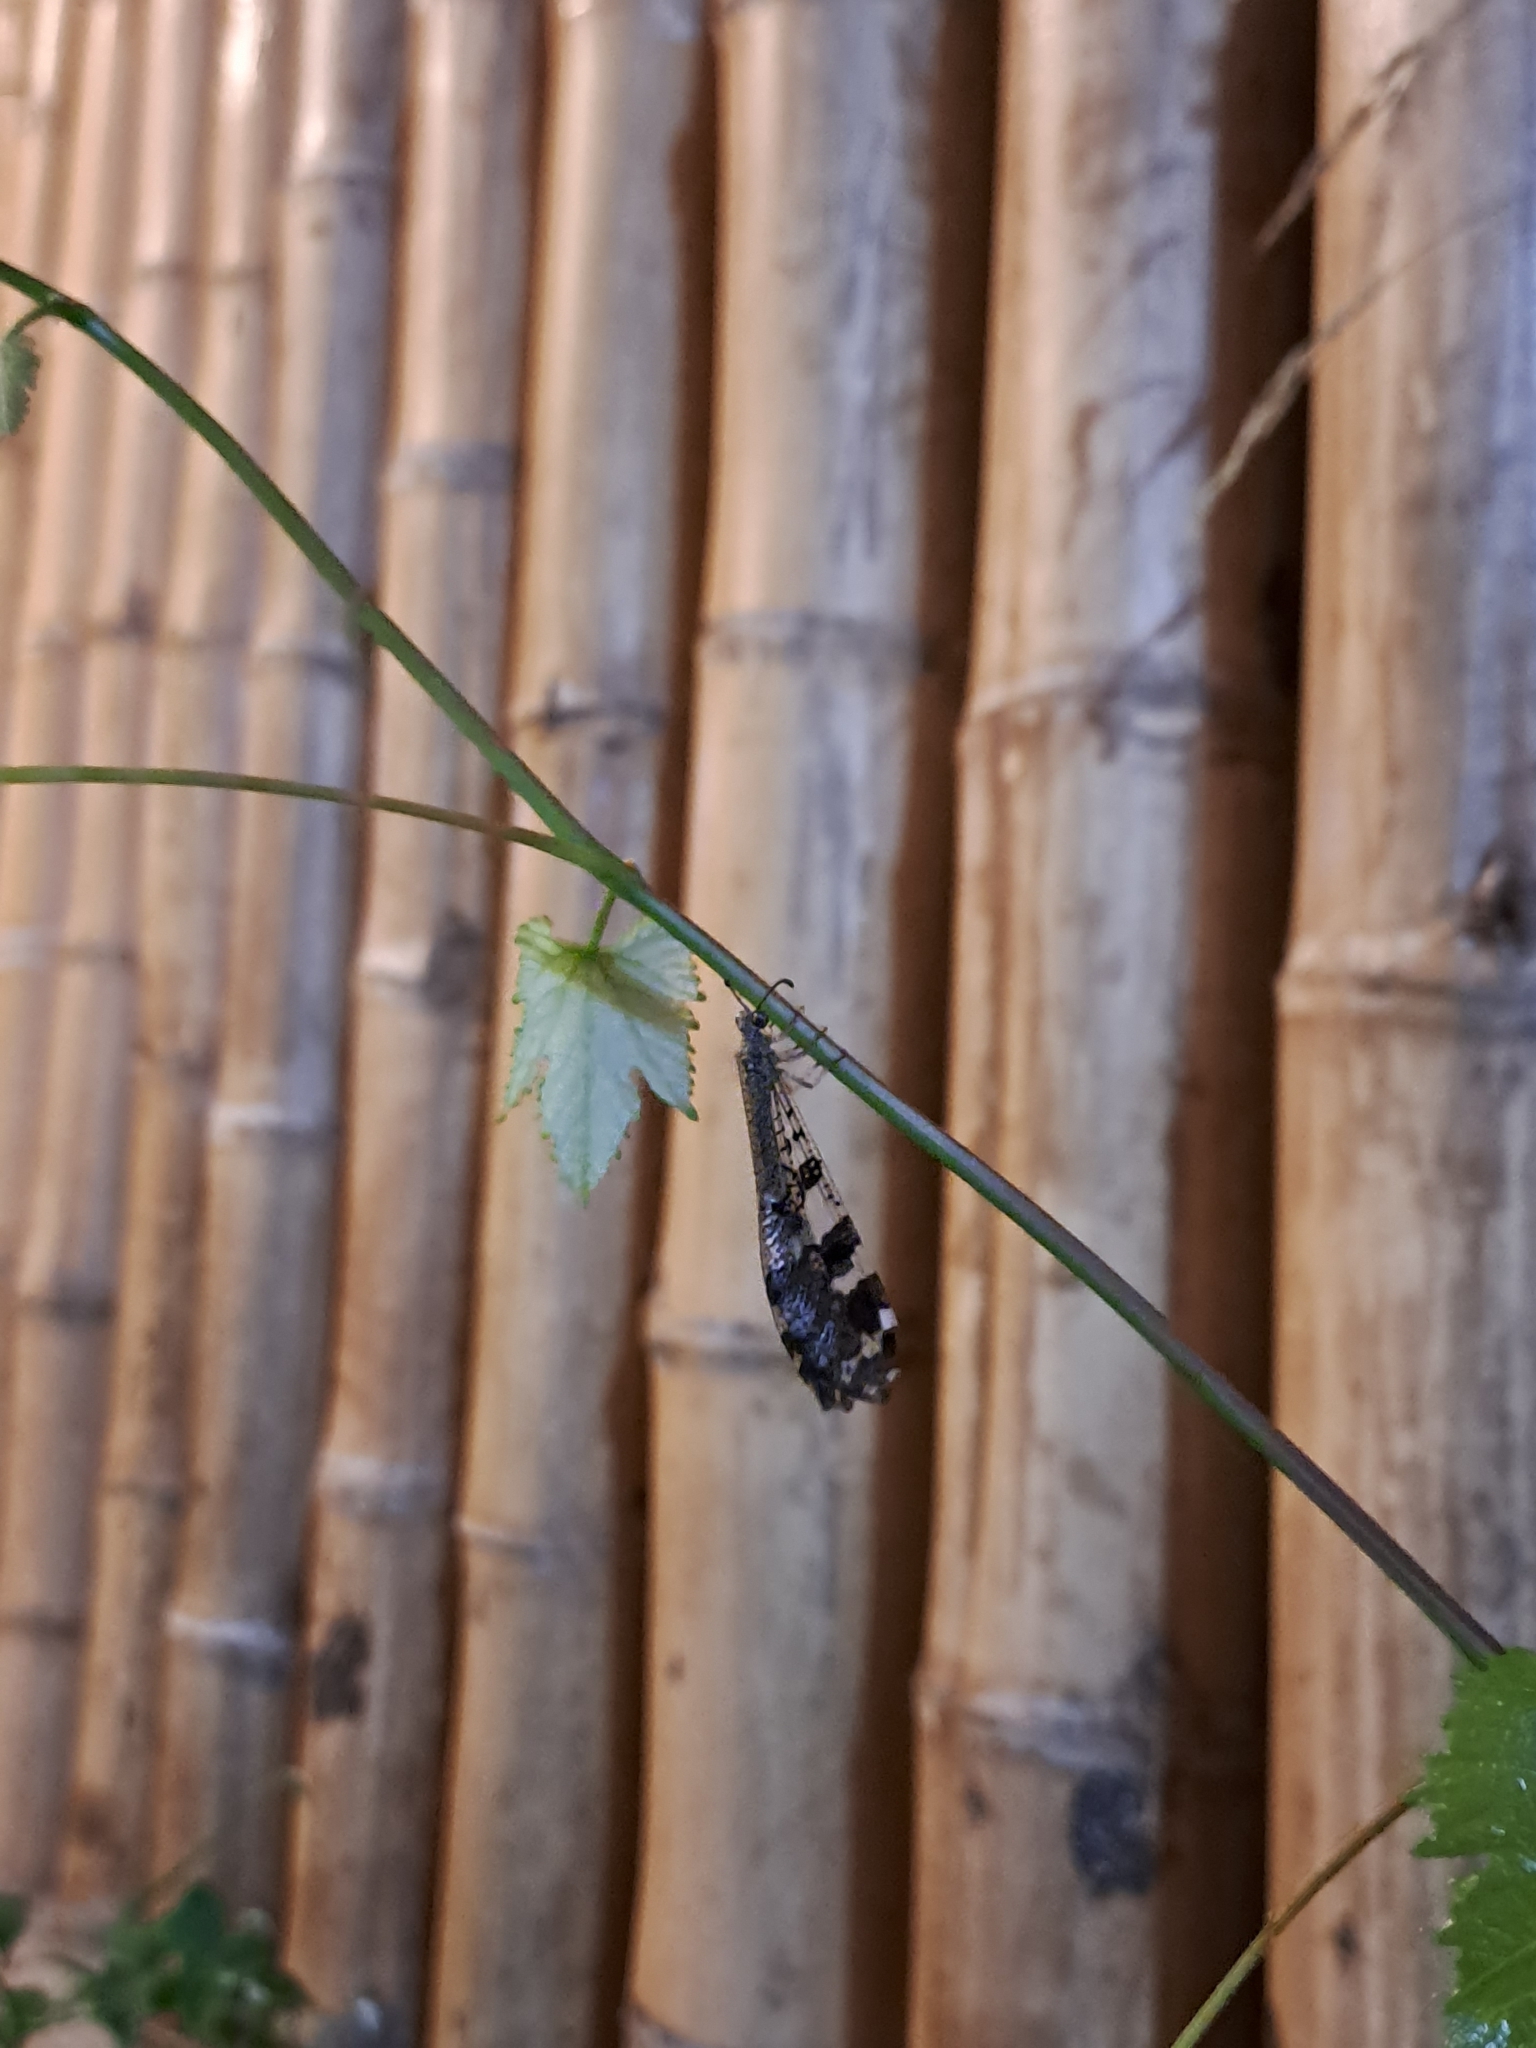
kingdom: Animalia
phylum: Arthropoda
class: Insecta
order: Neuroptera
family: Myrmeleontidae
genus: Millerleon
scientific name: Millerleon subdolus
